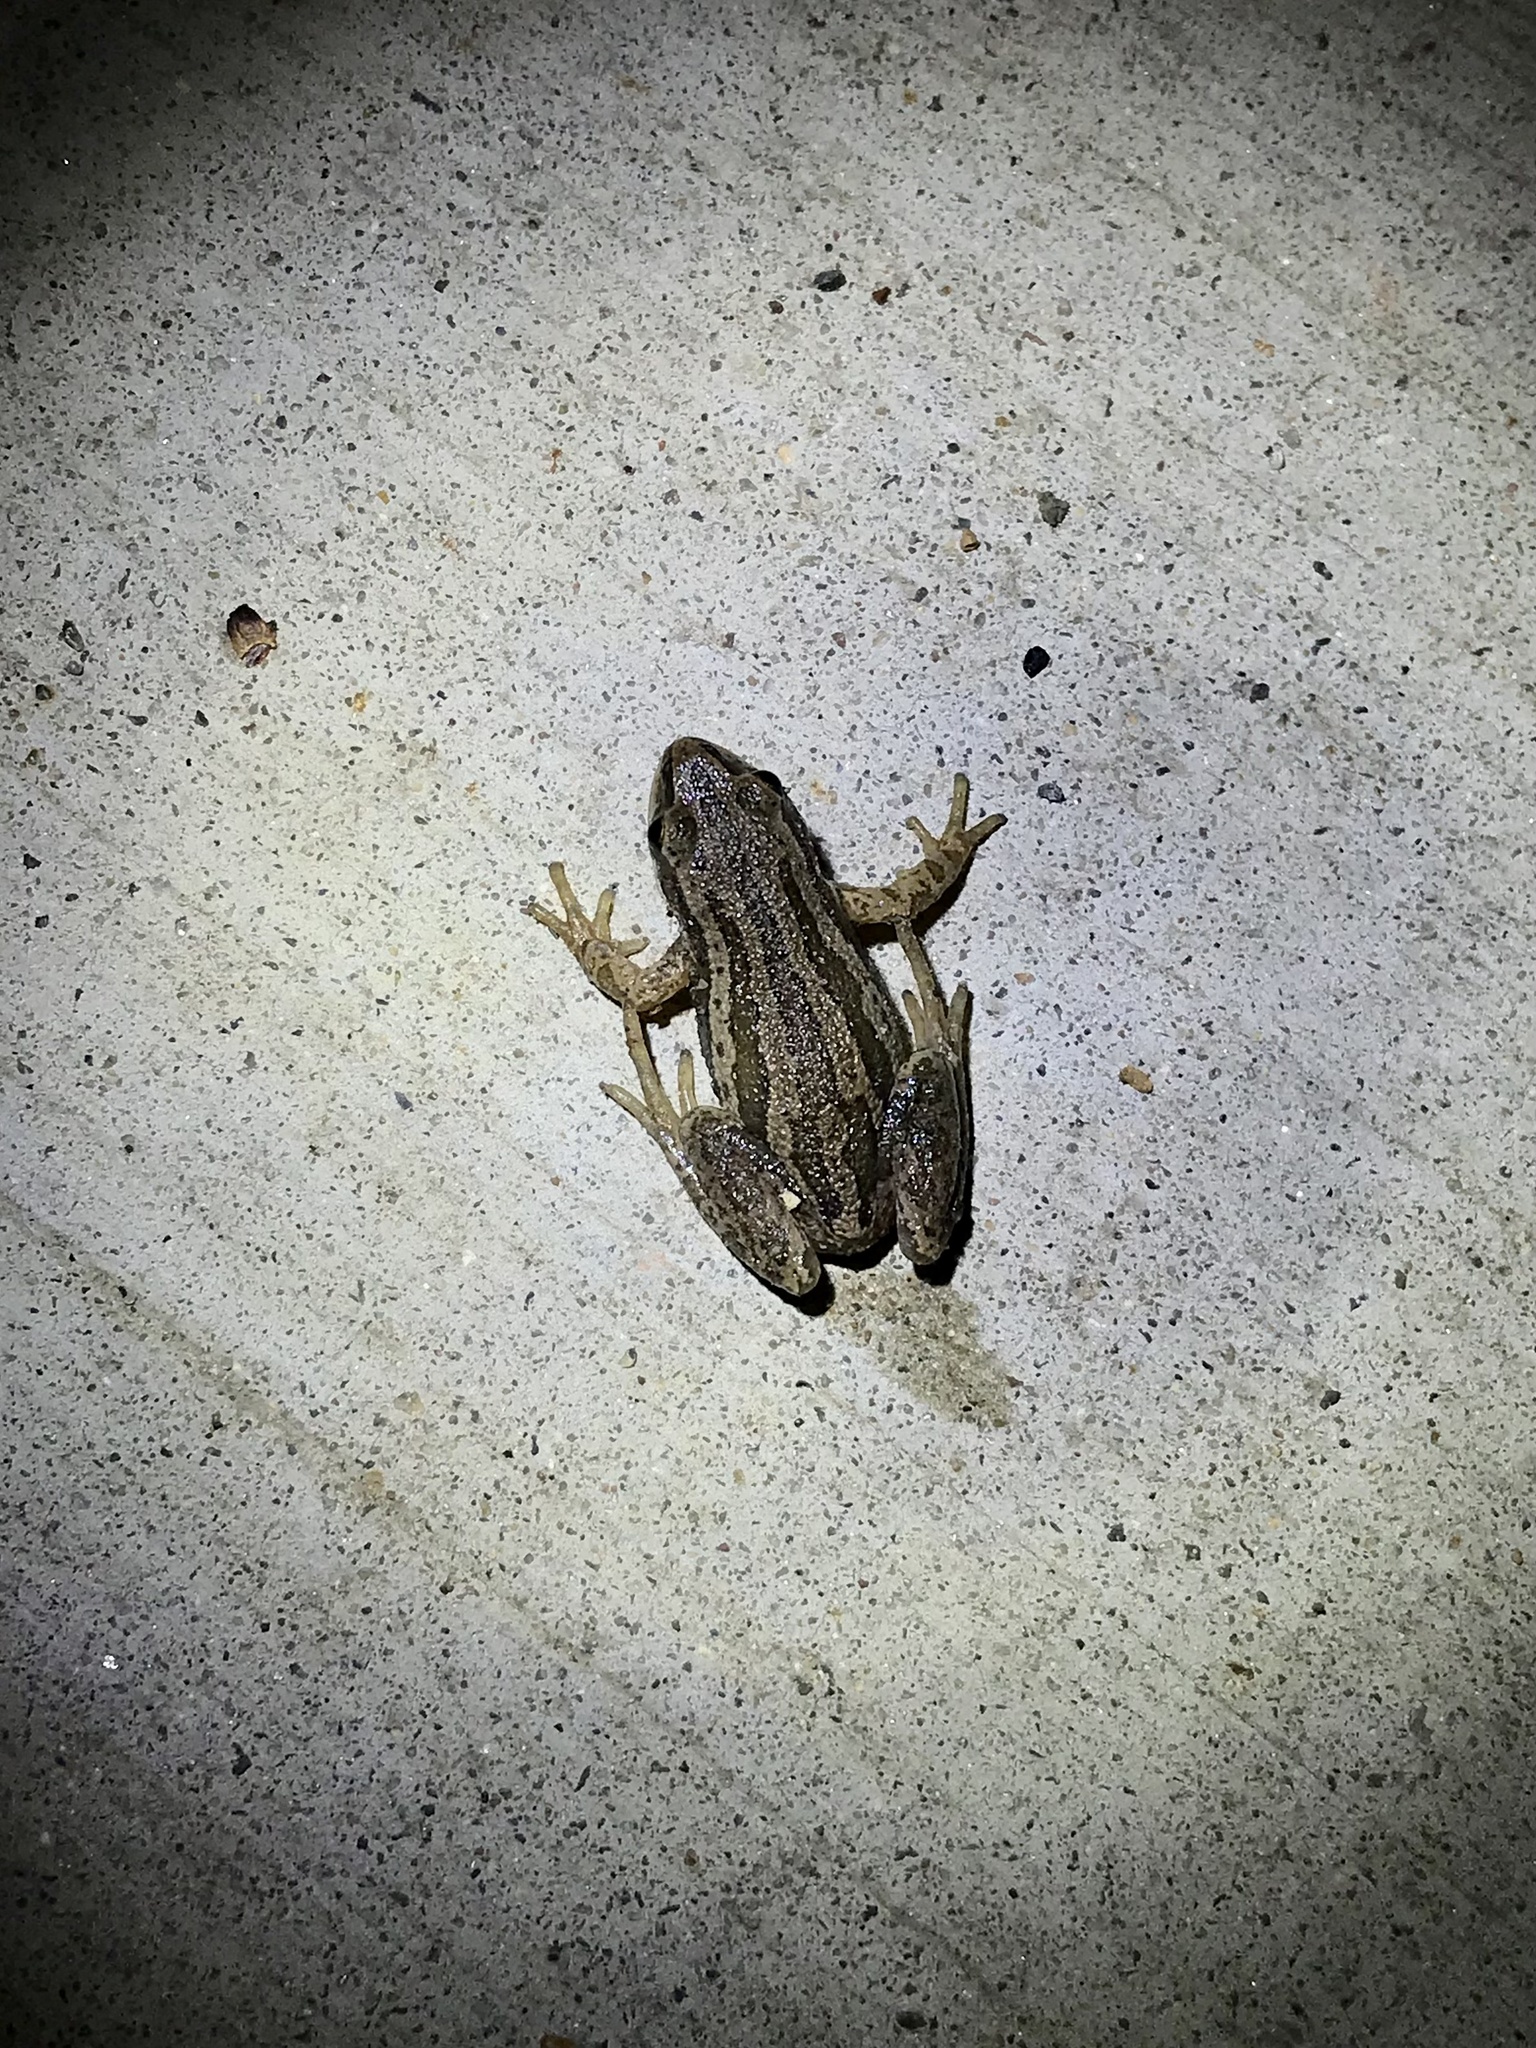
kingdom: Animalia
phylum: Chordata
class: Amphibia
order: Anura
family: Hylidae
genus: Pseudacris
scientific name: Pseudacris maculata
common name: Boreal chorus frog
